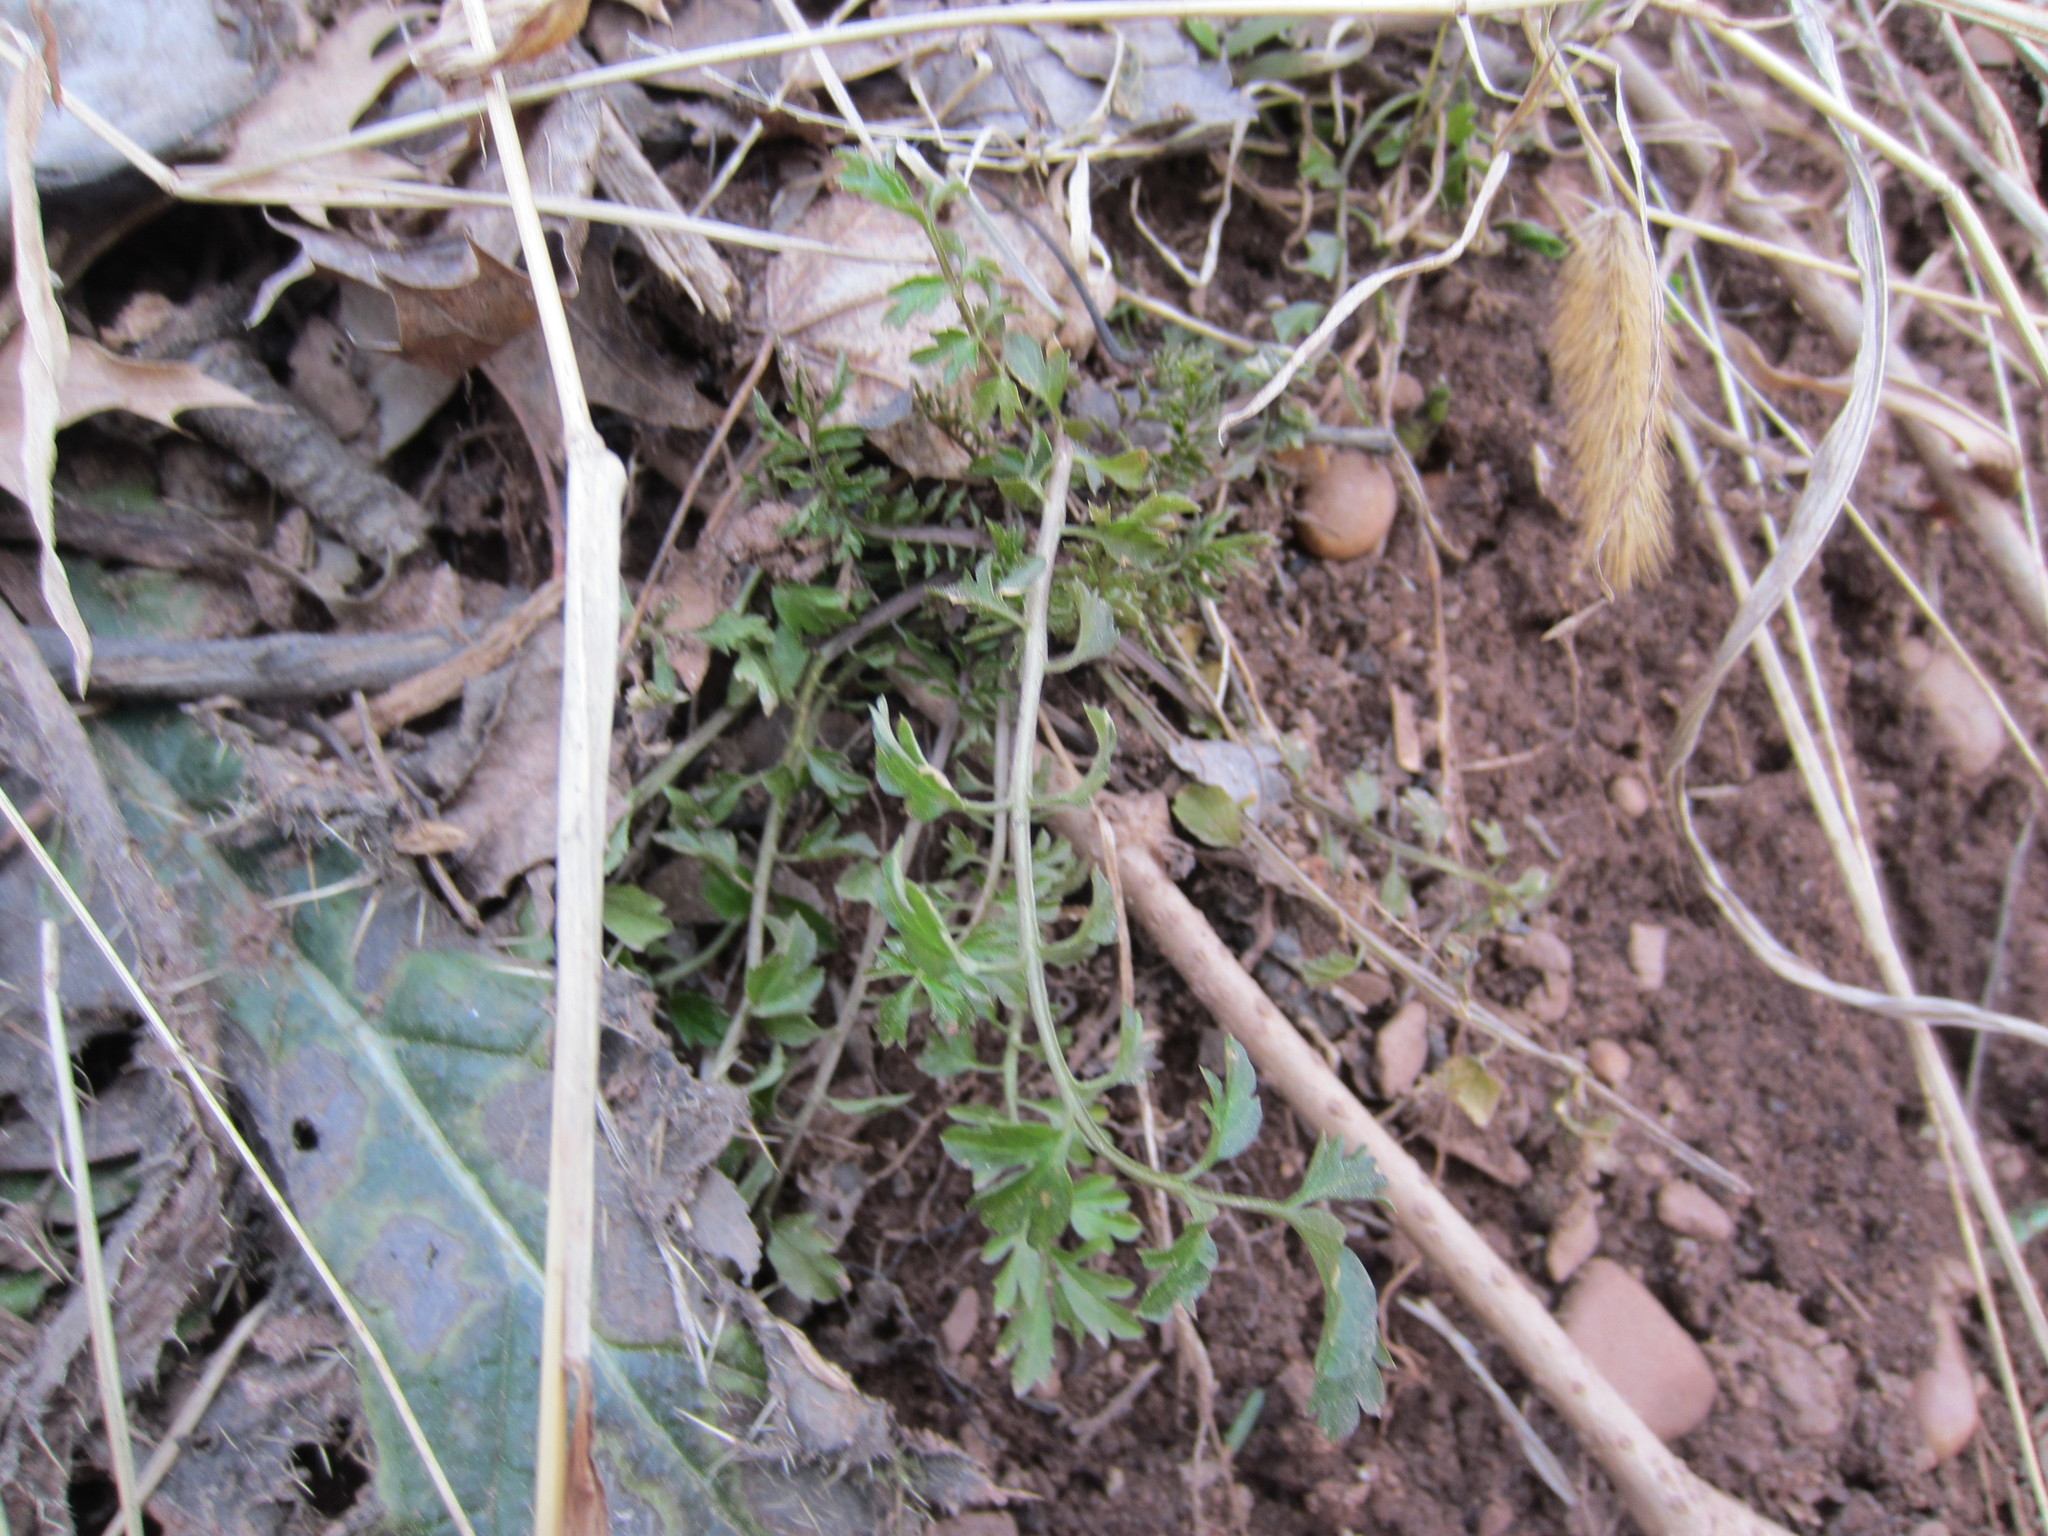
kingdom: Plantae
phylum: Tracheophyta
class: Magnoliopsida
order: Brassicales
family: Brassicaceae
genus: Cardamine
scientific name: Cardamine impatiens
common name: Narrow-leaved bitter-cress
